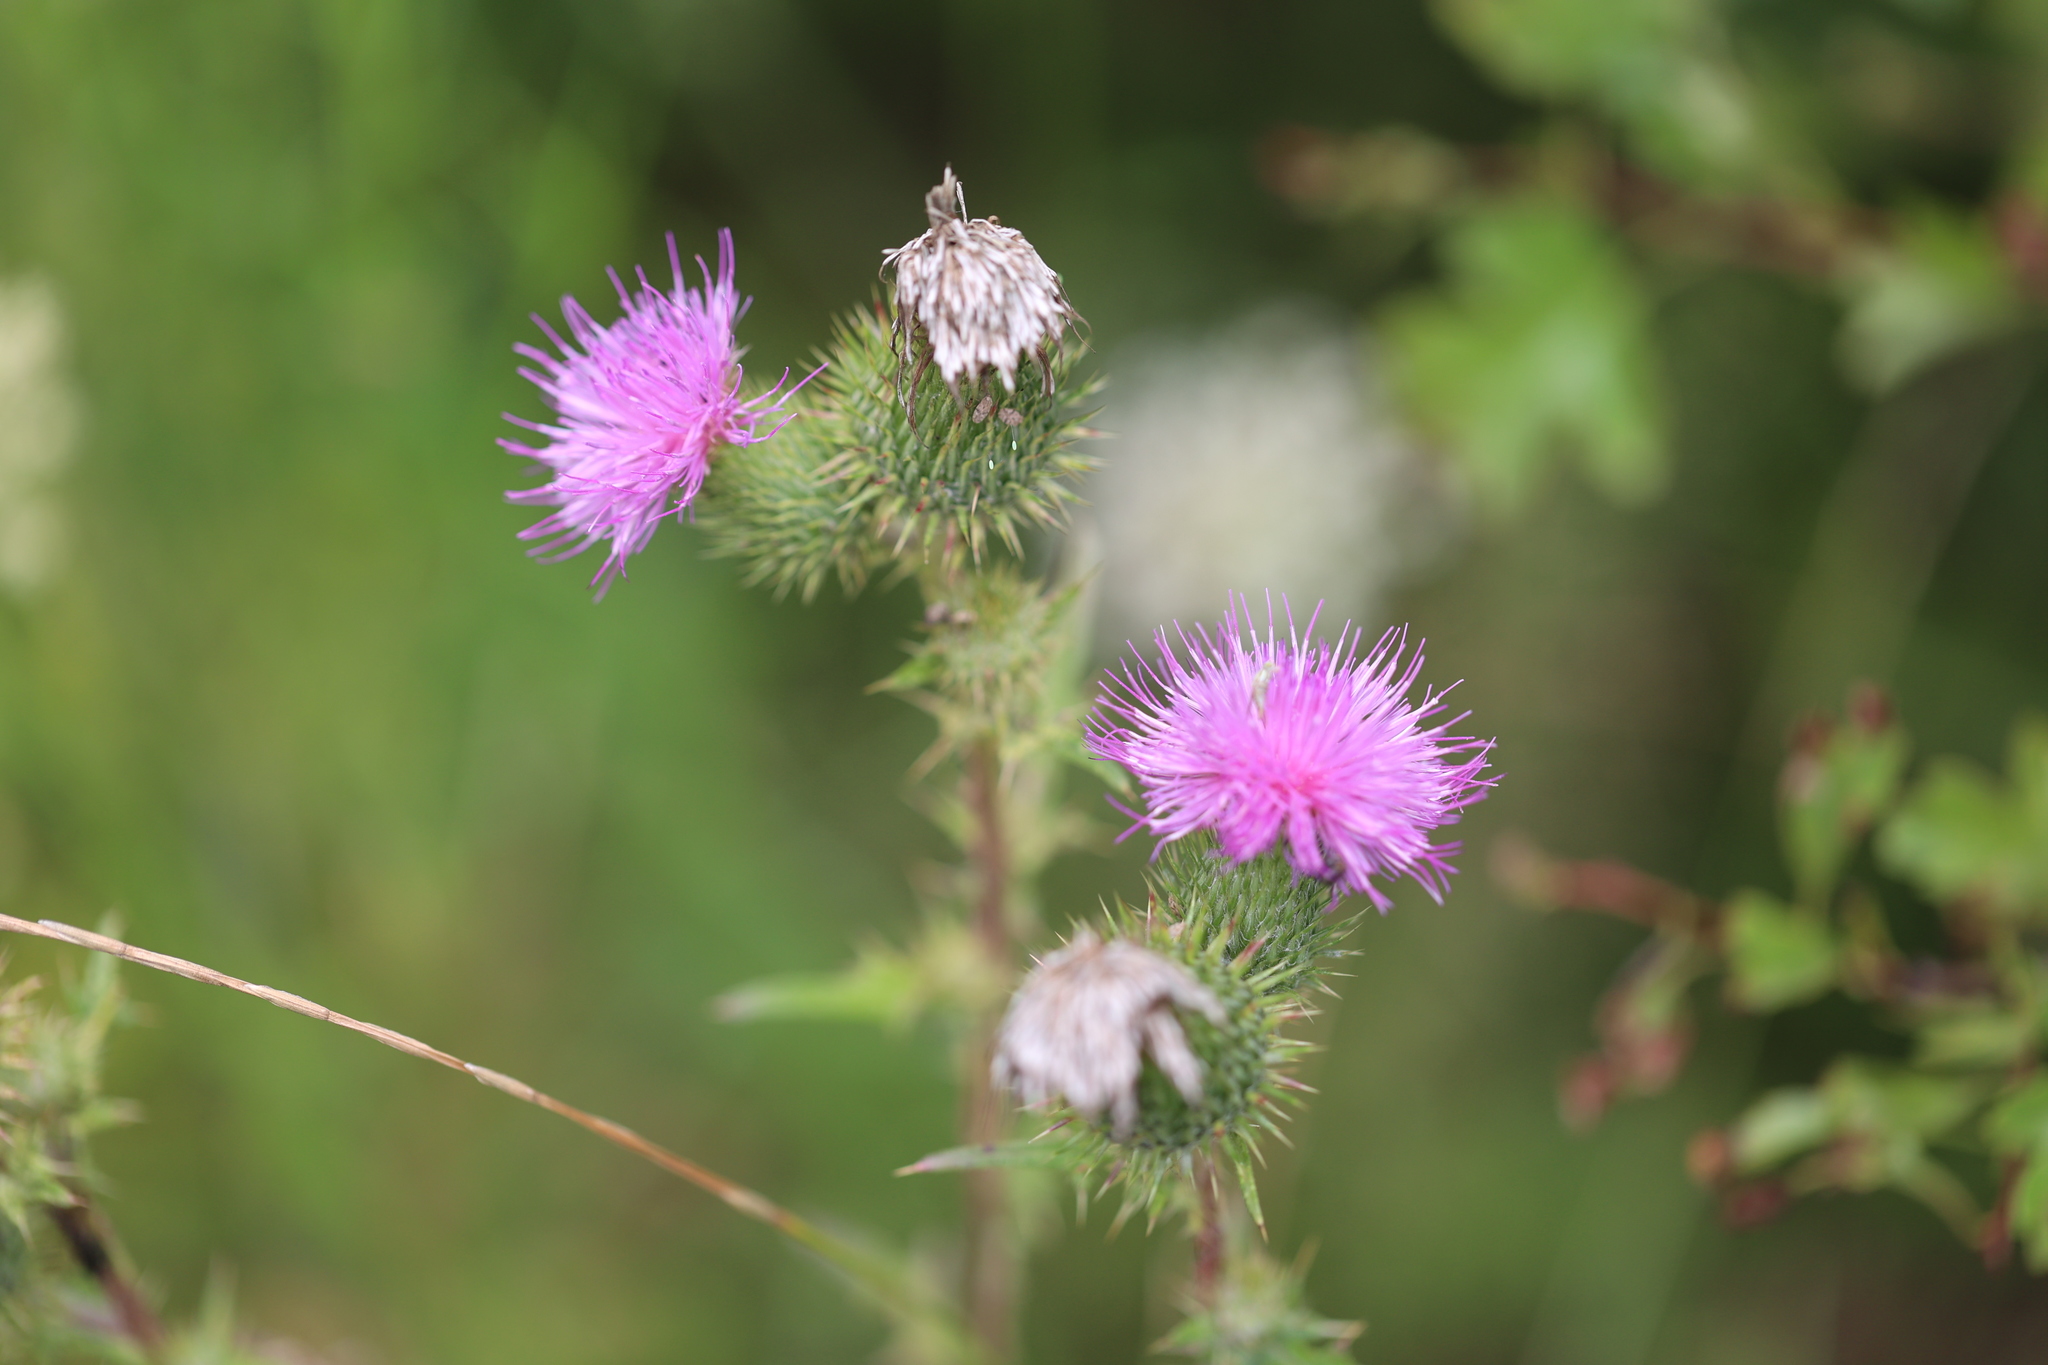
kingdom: Plantae
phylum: Tracheophyta
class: Magnoliopsida
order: Asterales
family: Asteraceae
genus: Cirsium
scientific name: Cirsium vulgare
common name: Bull thistle
